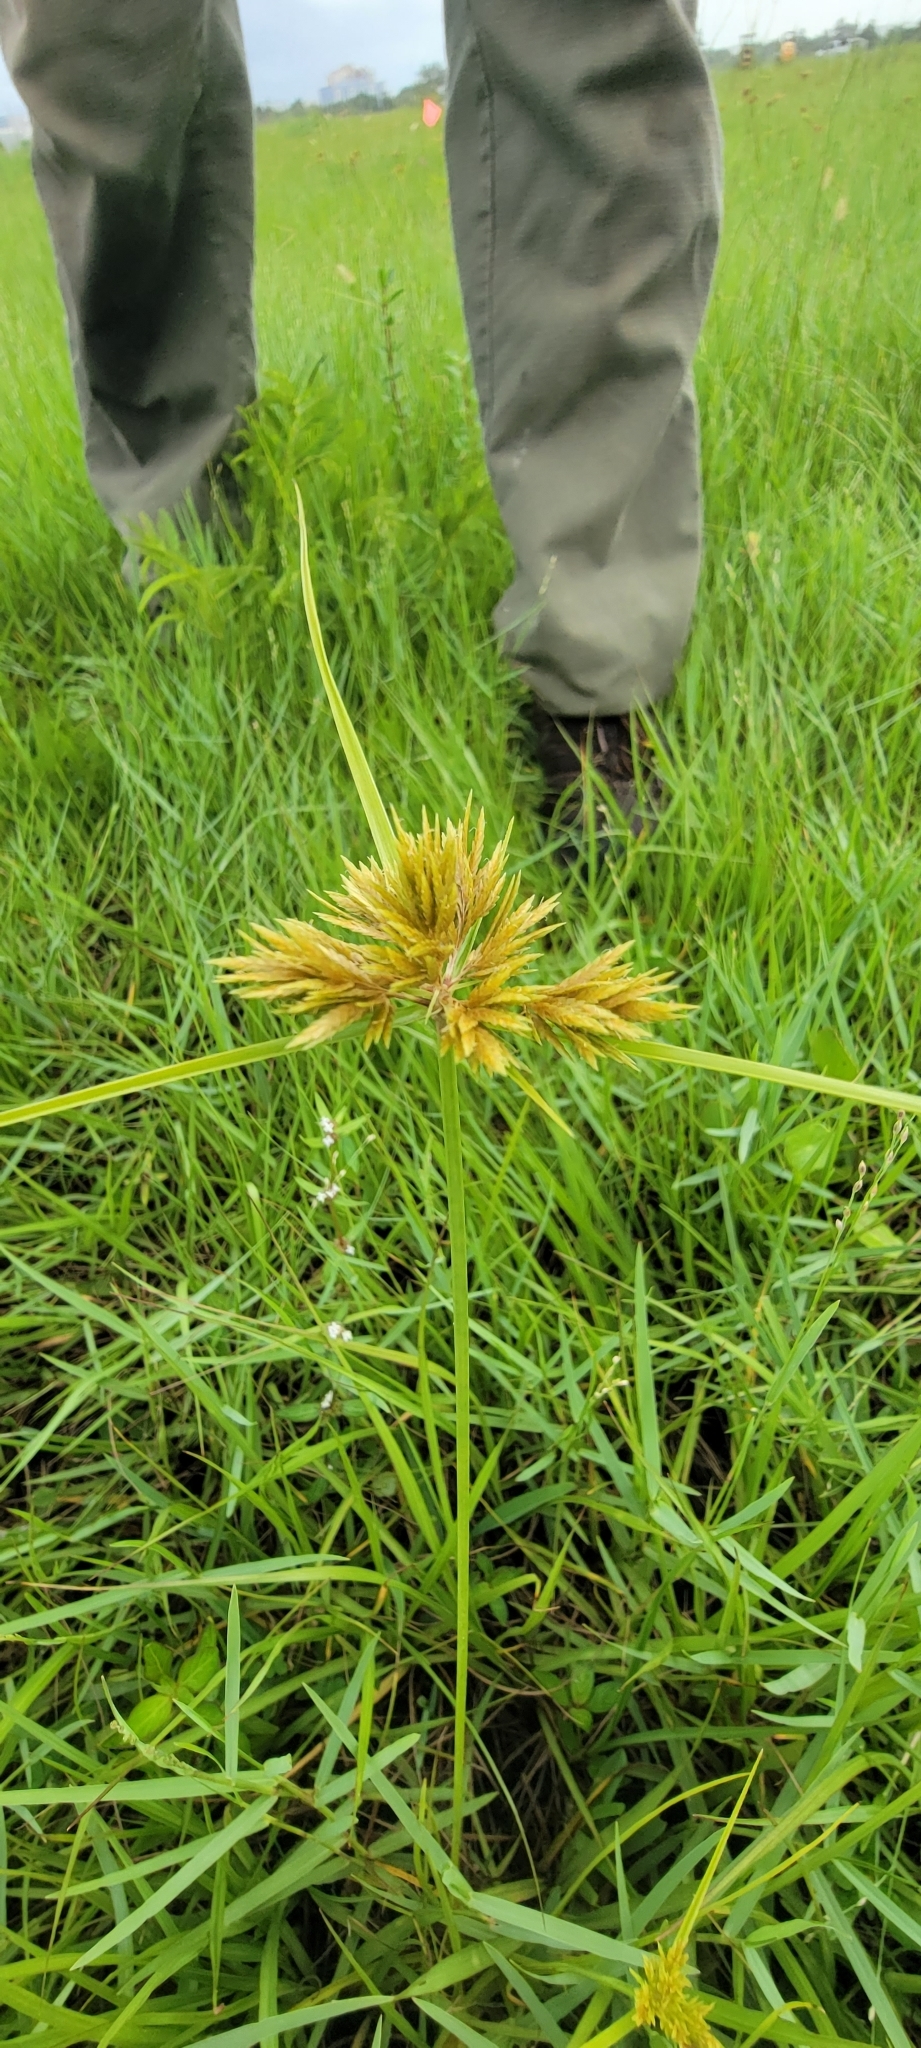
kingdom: Plantae
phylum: Tracheophyta
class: Liliopsida
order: Poales
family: Cyperaceae
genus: Cyperus
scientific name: Cyperus polystachyos
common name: Bunchy flat sedge
